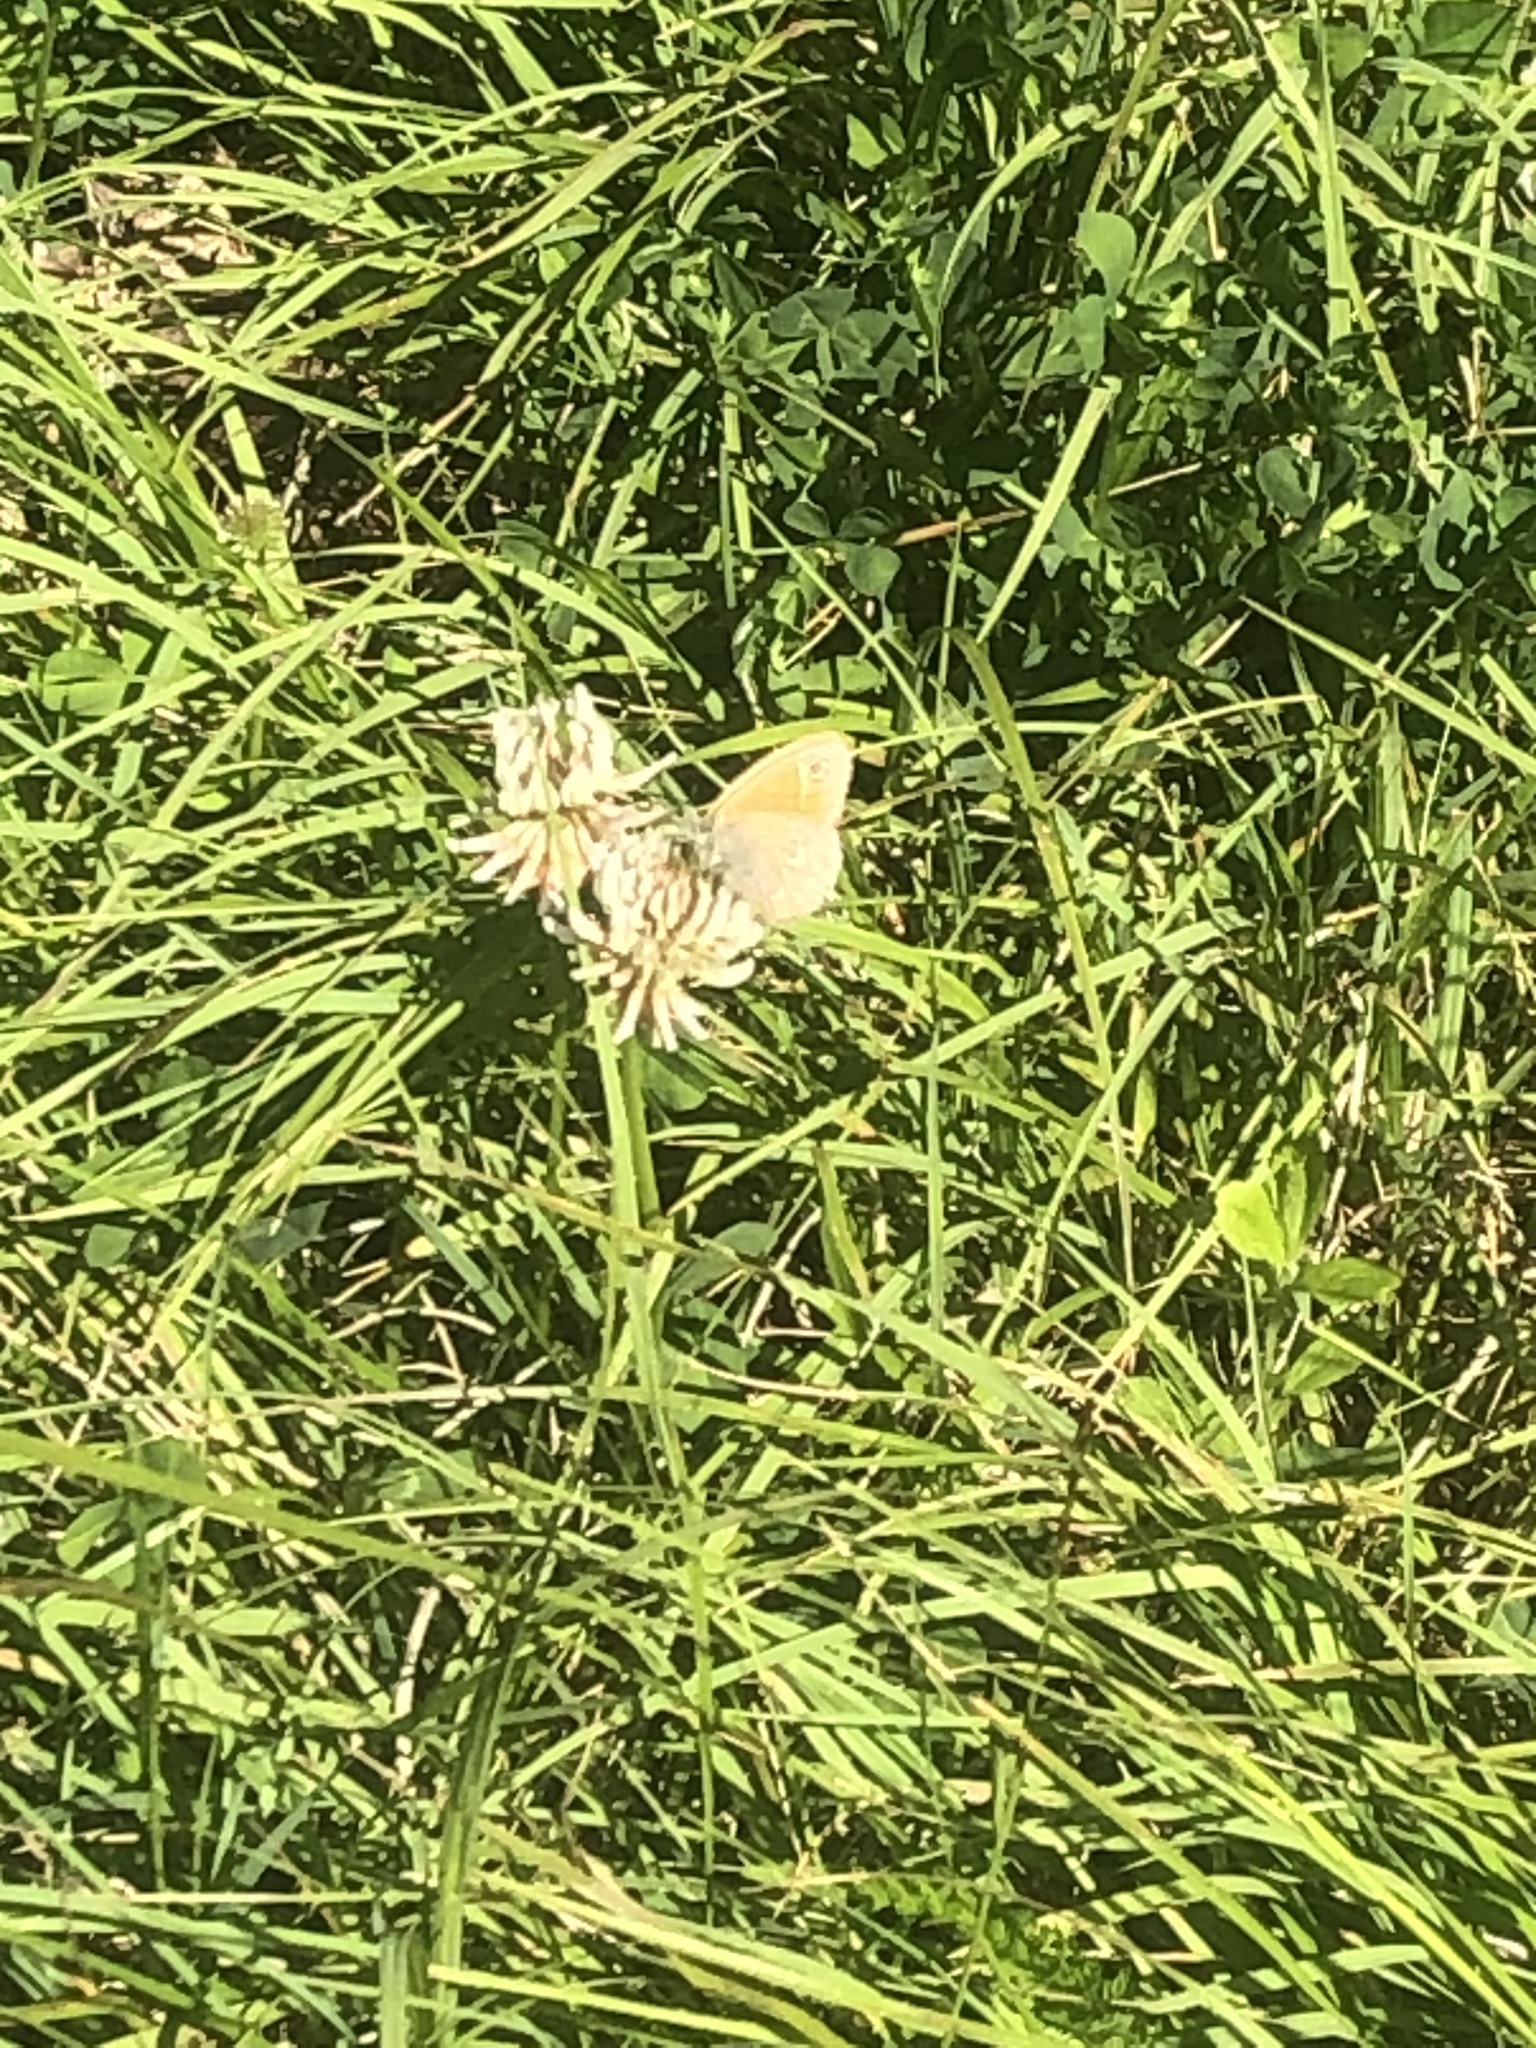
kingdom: Animalia
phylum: Arthropoda
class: Insecta
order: Lepidoptera
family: Nymphalidae
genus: Coenonympha
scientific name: Coenonympha california
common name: Common ringlet
